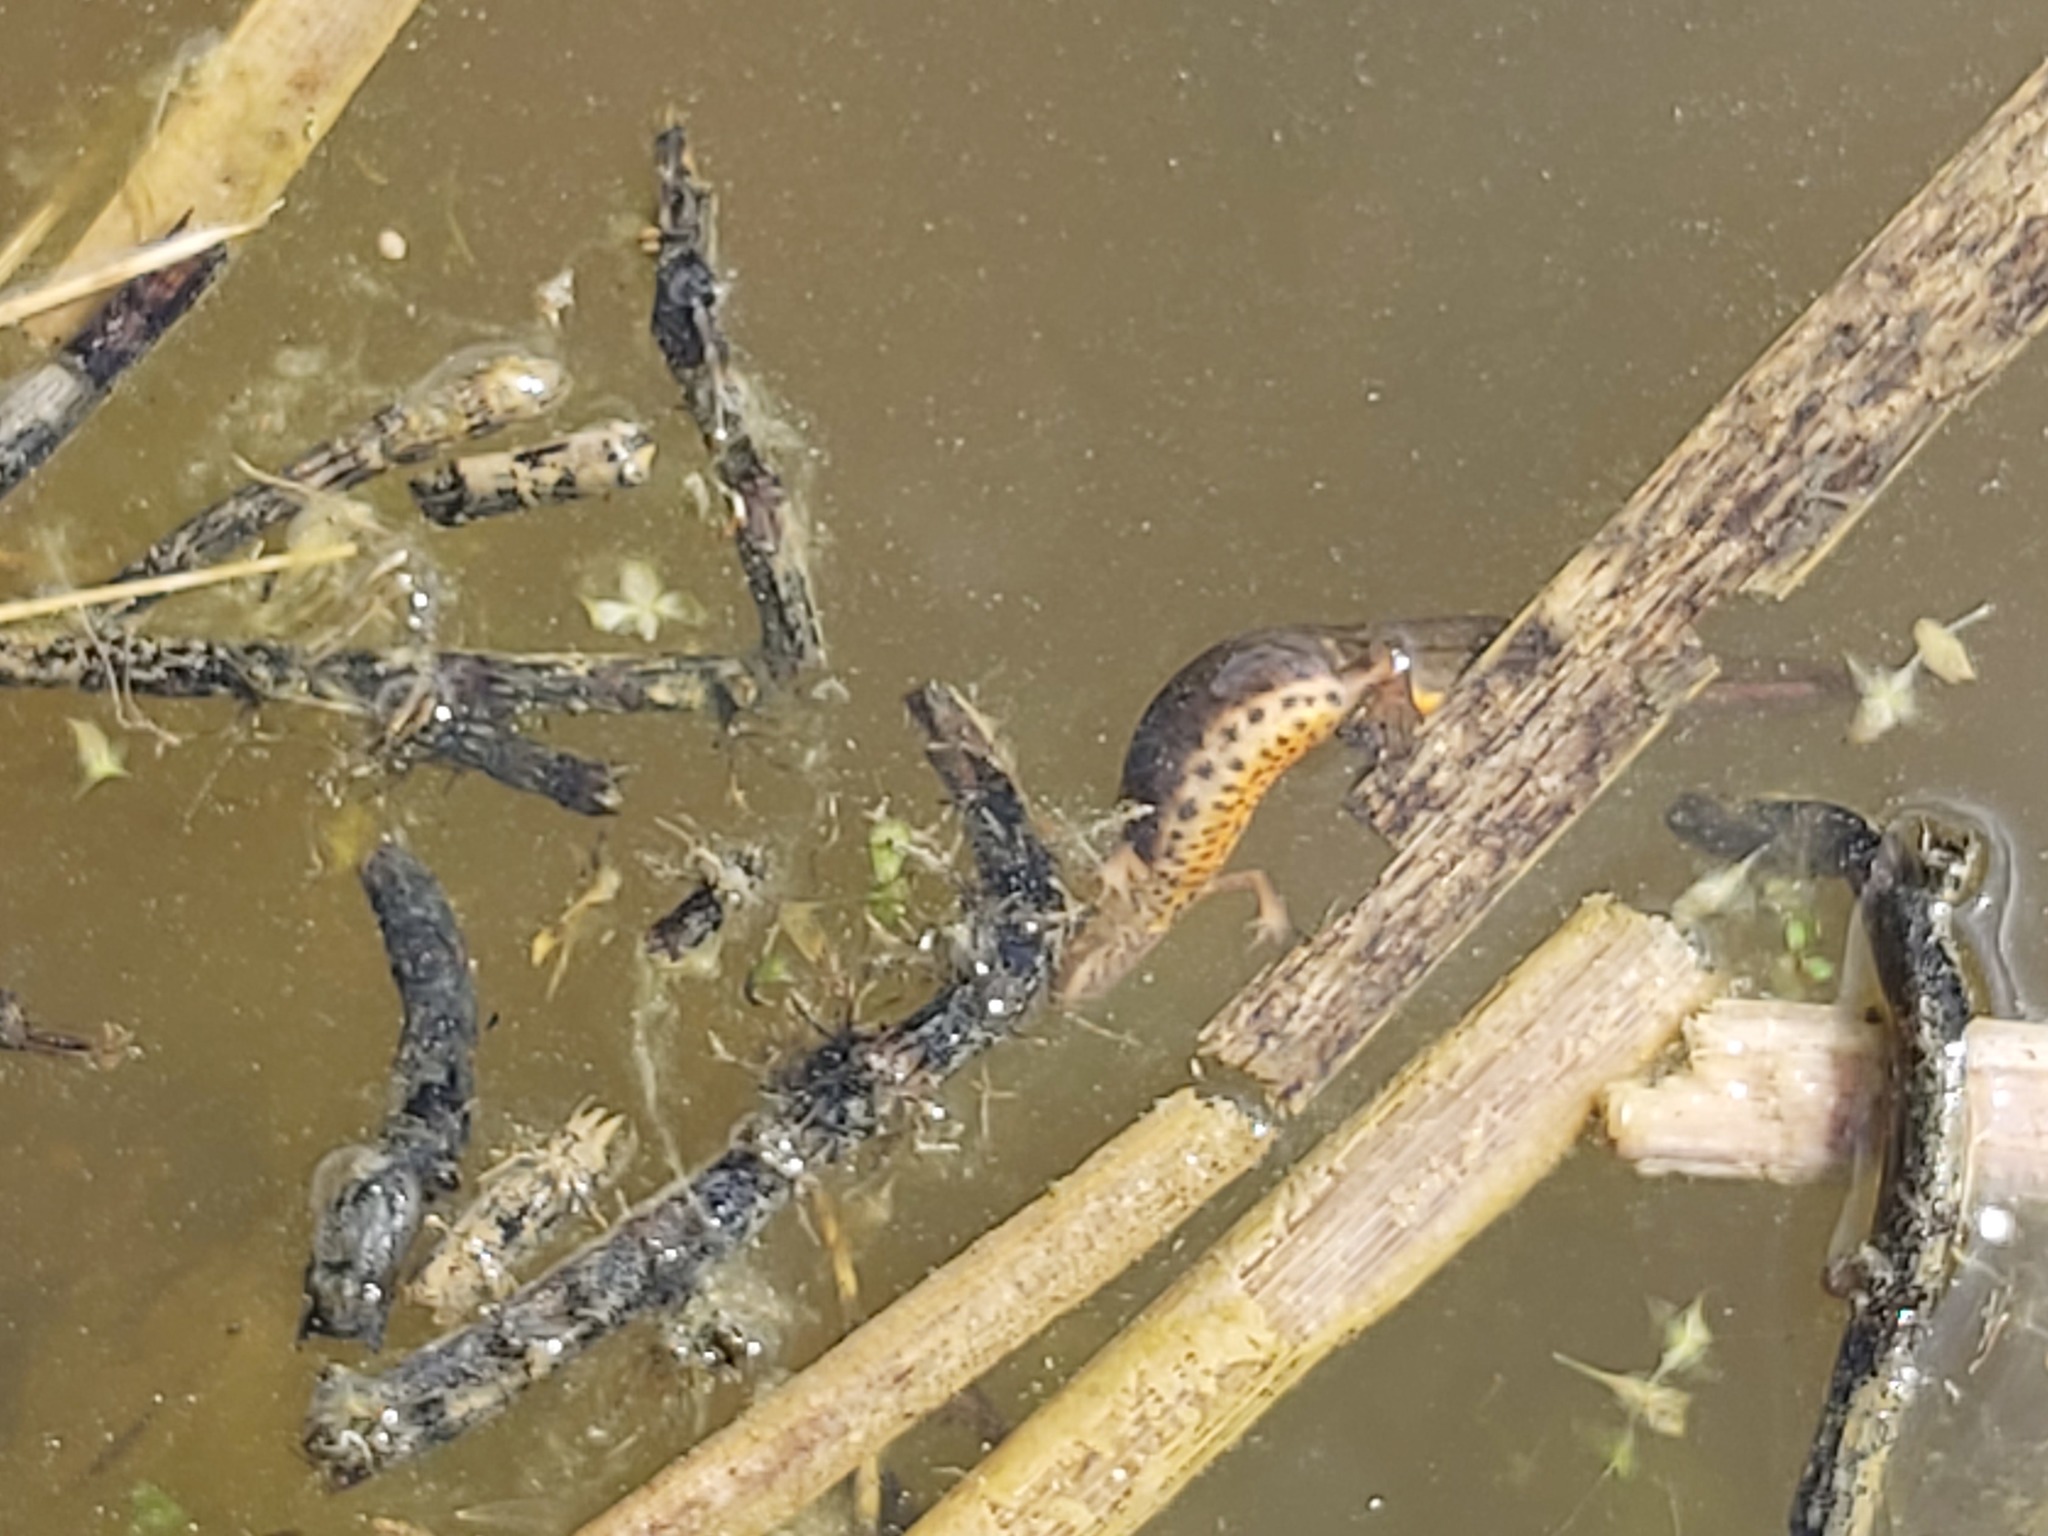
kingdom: Animalia
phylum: Chordata
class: Amphibia
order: Caudata
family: Salamandridae
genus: Lissotriton
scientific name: Lissotriton vulgaris
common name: Smooth newt
